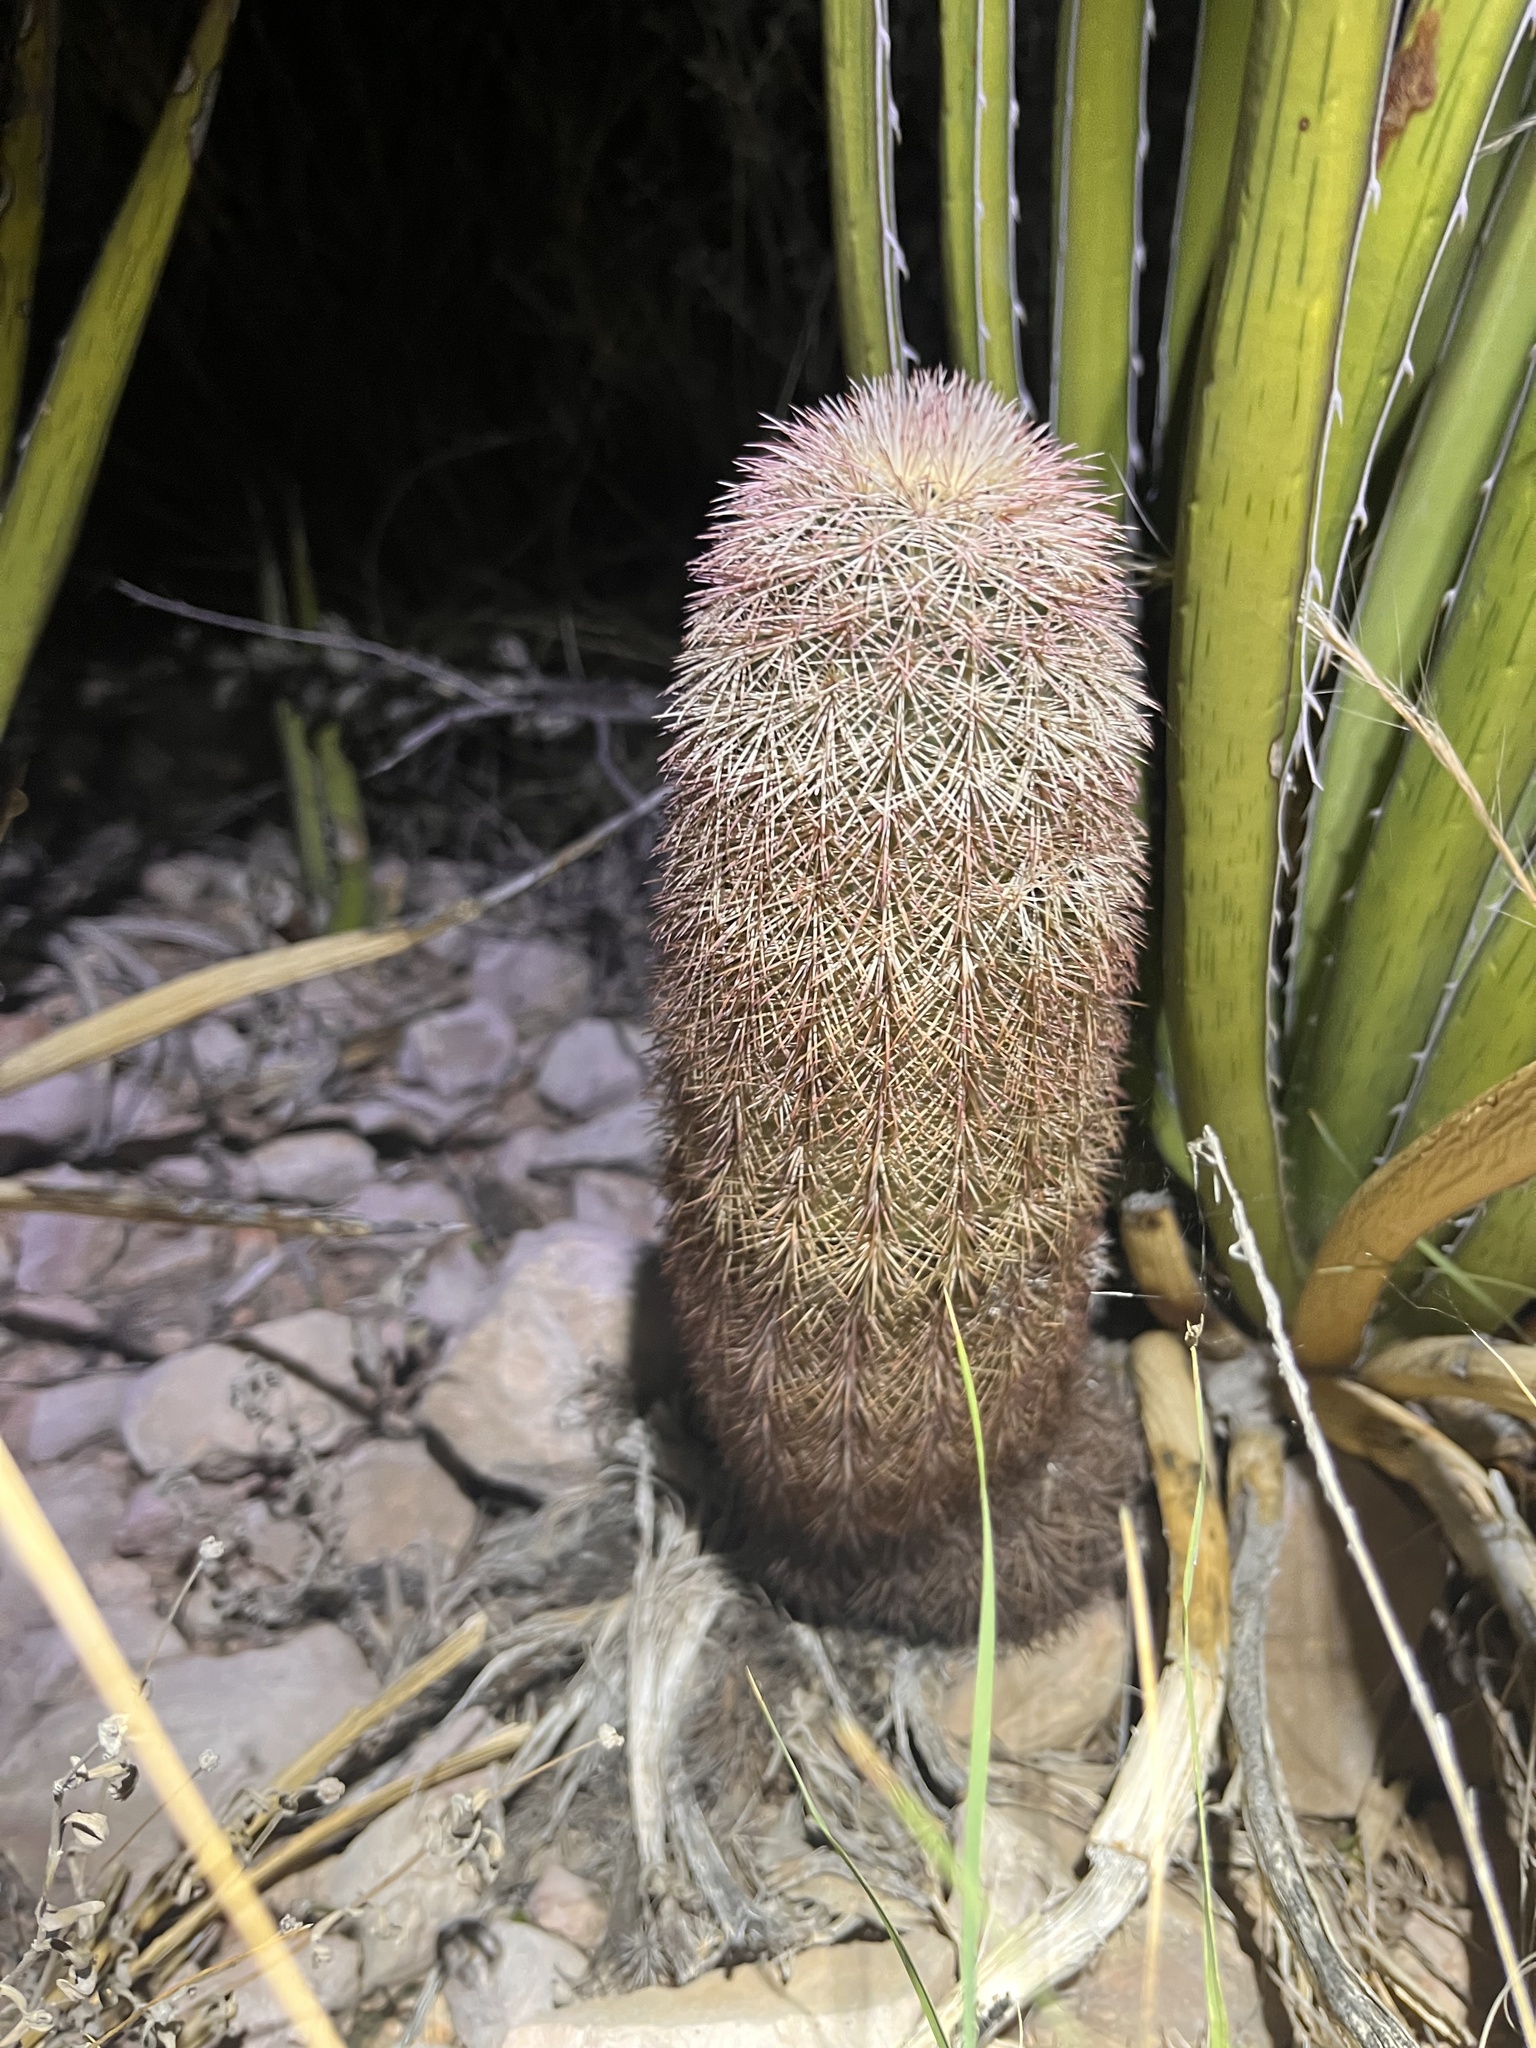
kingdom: Plantae
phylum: Tracheophyta
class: Magnoliopsida
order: Caryophyllales
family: Cactaceae
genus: Echinocereus
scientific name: Echinocereus dasyacanthus
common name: Spiny hedgehog cactus
